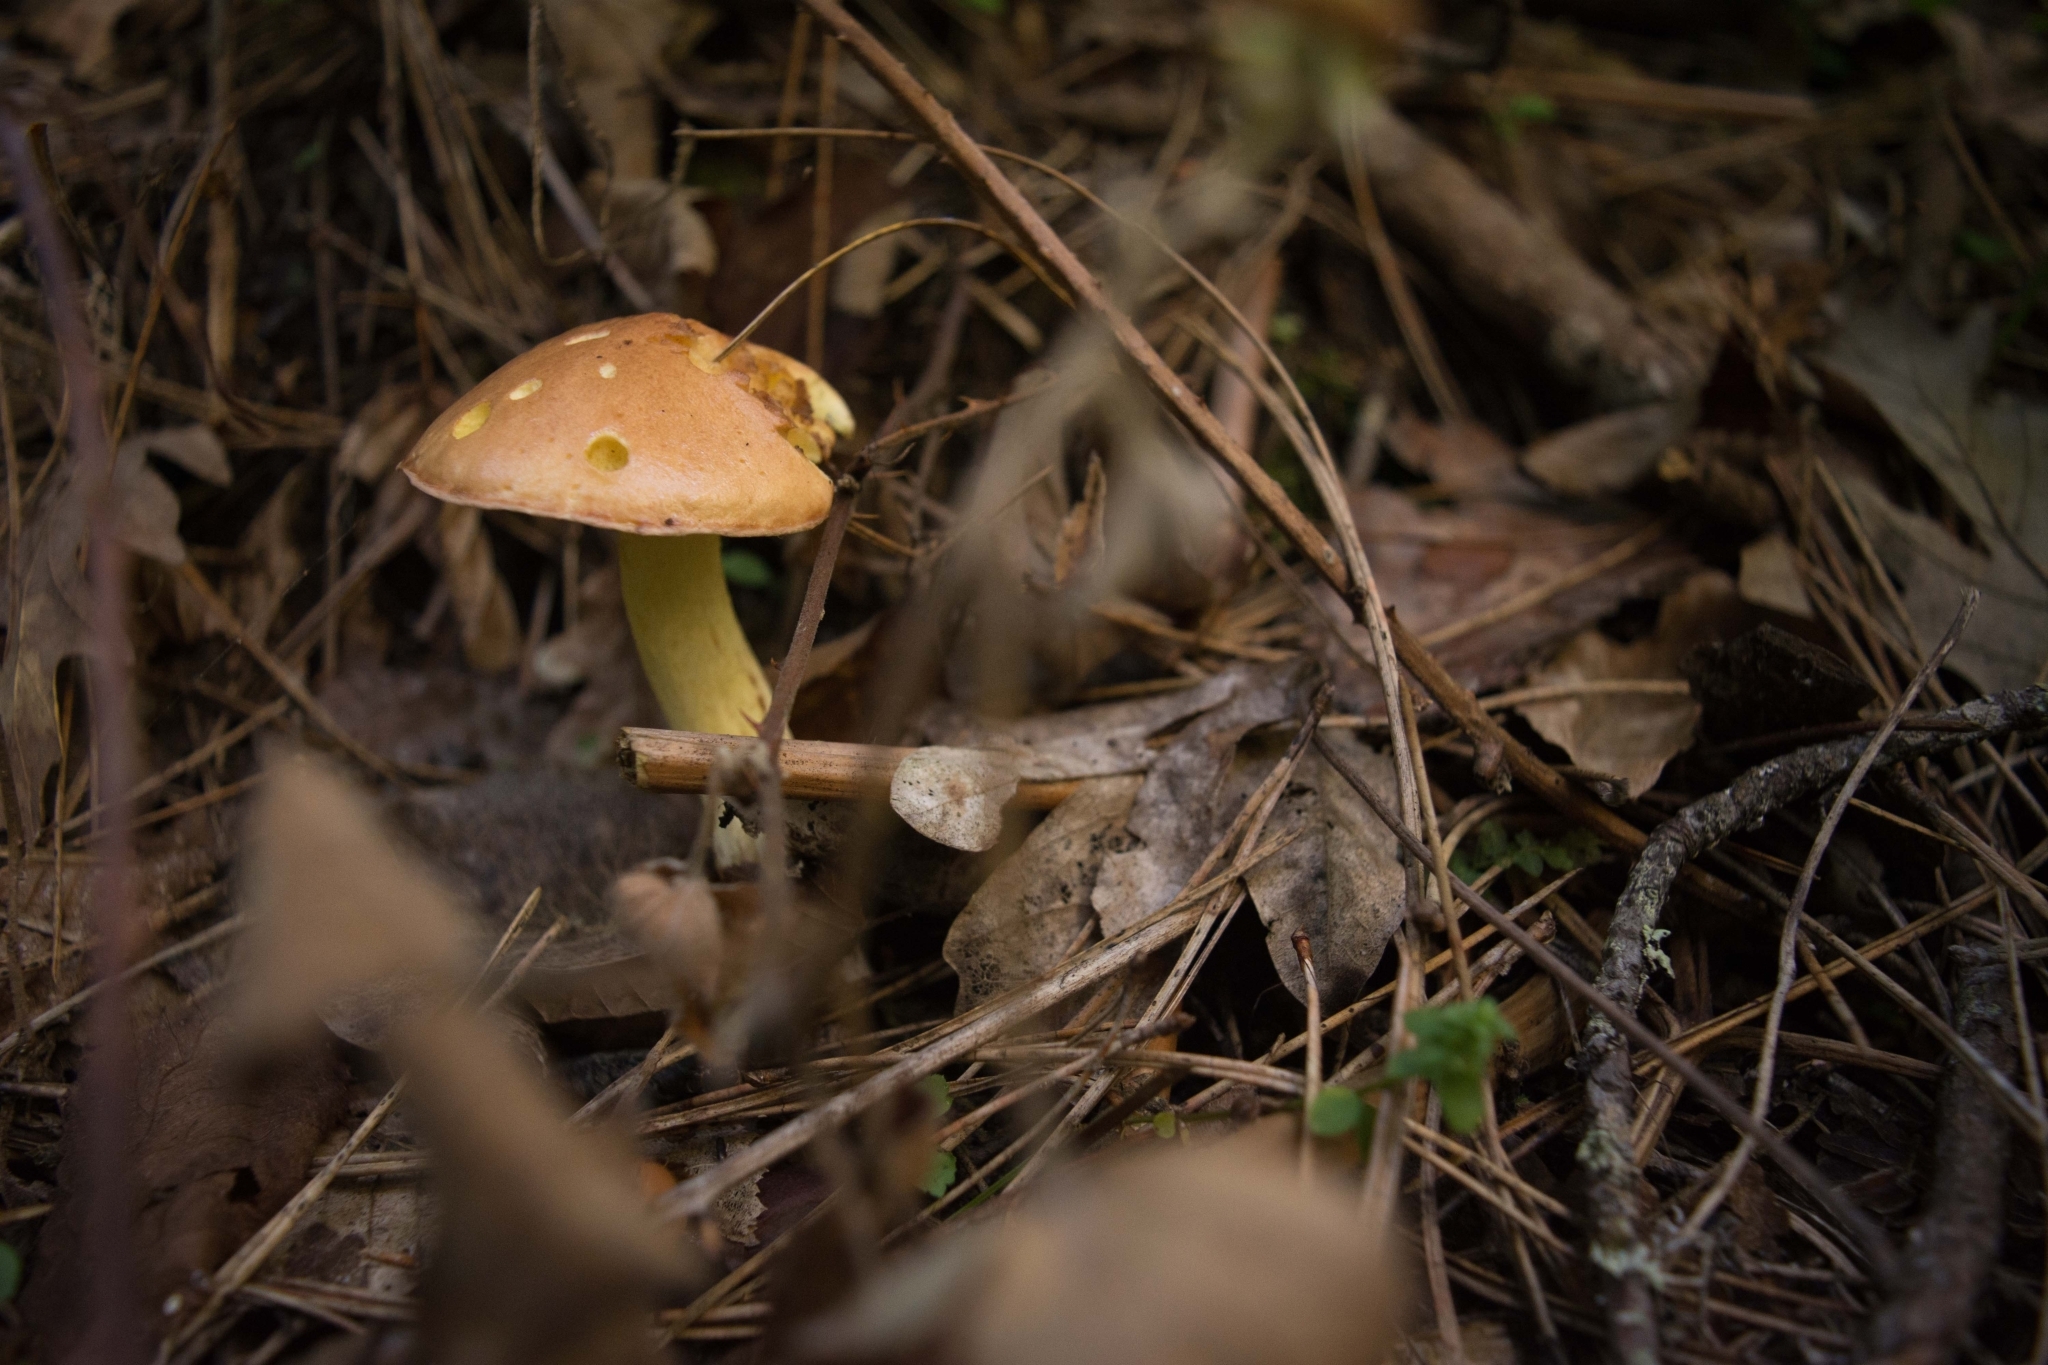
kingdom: Fungi
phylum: Basidiomycota
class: Agaricomycetes
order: Boletales
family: Suillaceae
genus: Suillus
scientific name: Suillus bovinus
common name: Bovine bolete
